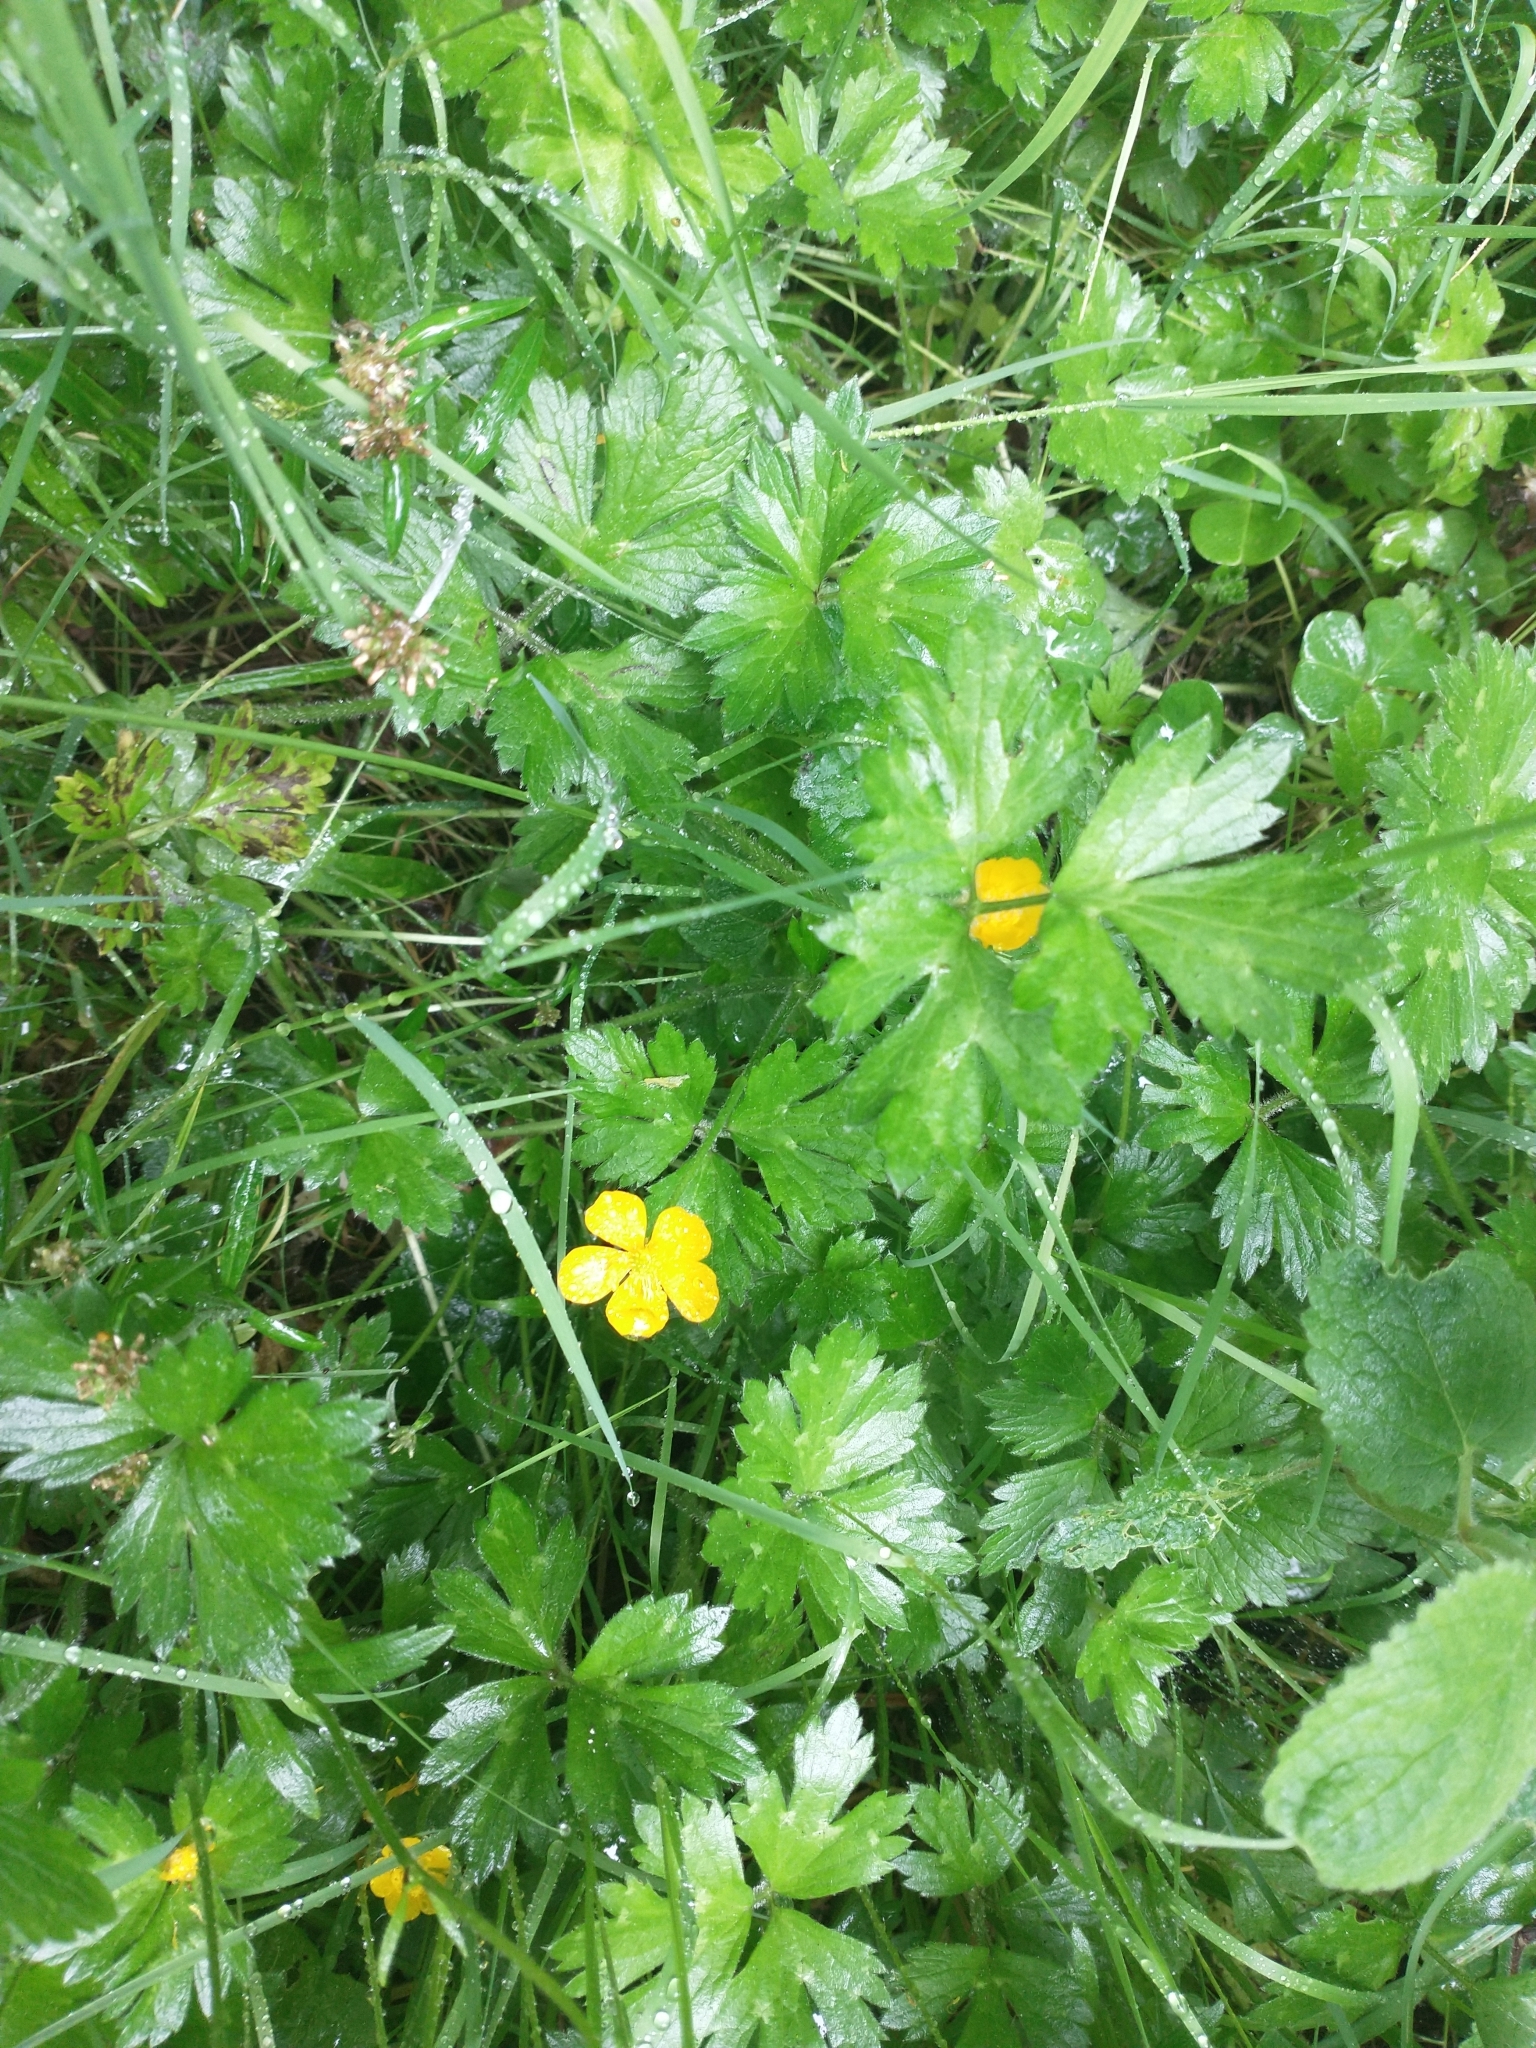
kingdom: Plantae
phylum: Tracheophyta
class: Magnoliopsida
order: Ranunculales
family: Ranunculaceae
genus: Ranunculus
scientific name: Ranunculus repens
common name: Creeping buttercup
